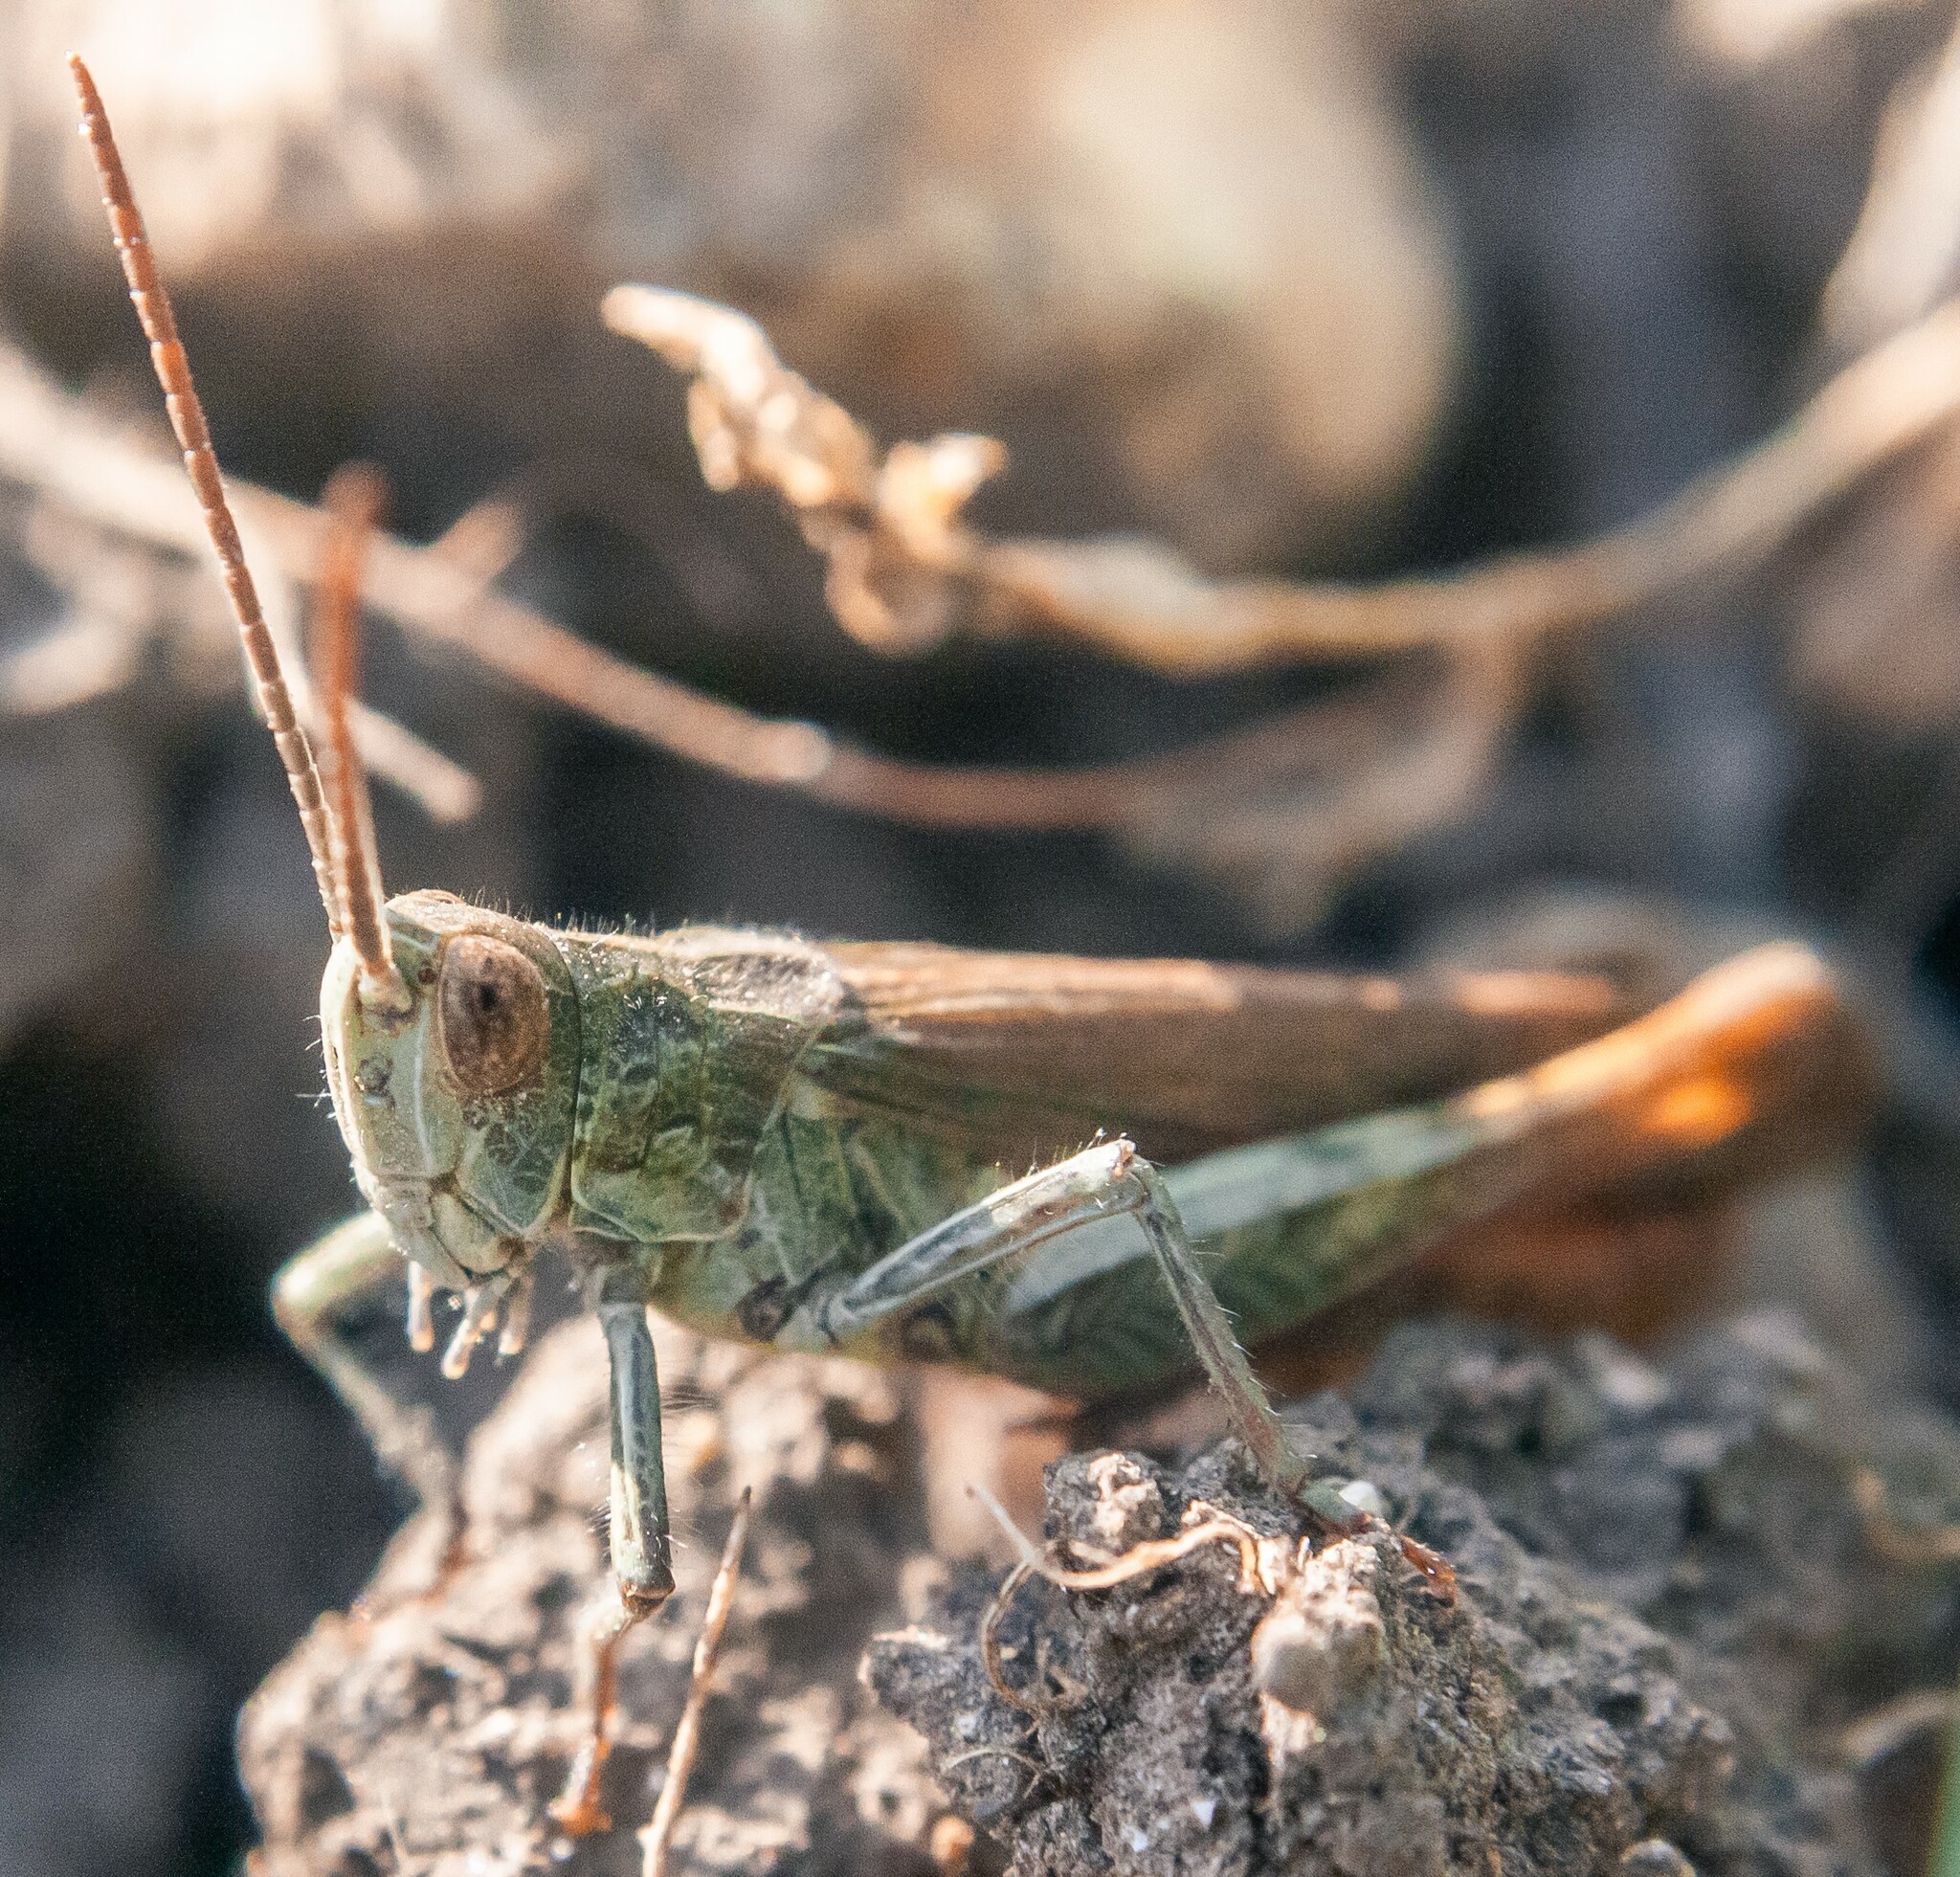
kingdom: Animalia
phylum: Arthropoda
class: Insecta
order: Orthoptera
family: Acrididae
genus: Chorthippus
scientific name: Chorthippus brunneus
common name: Field grasshopper
